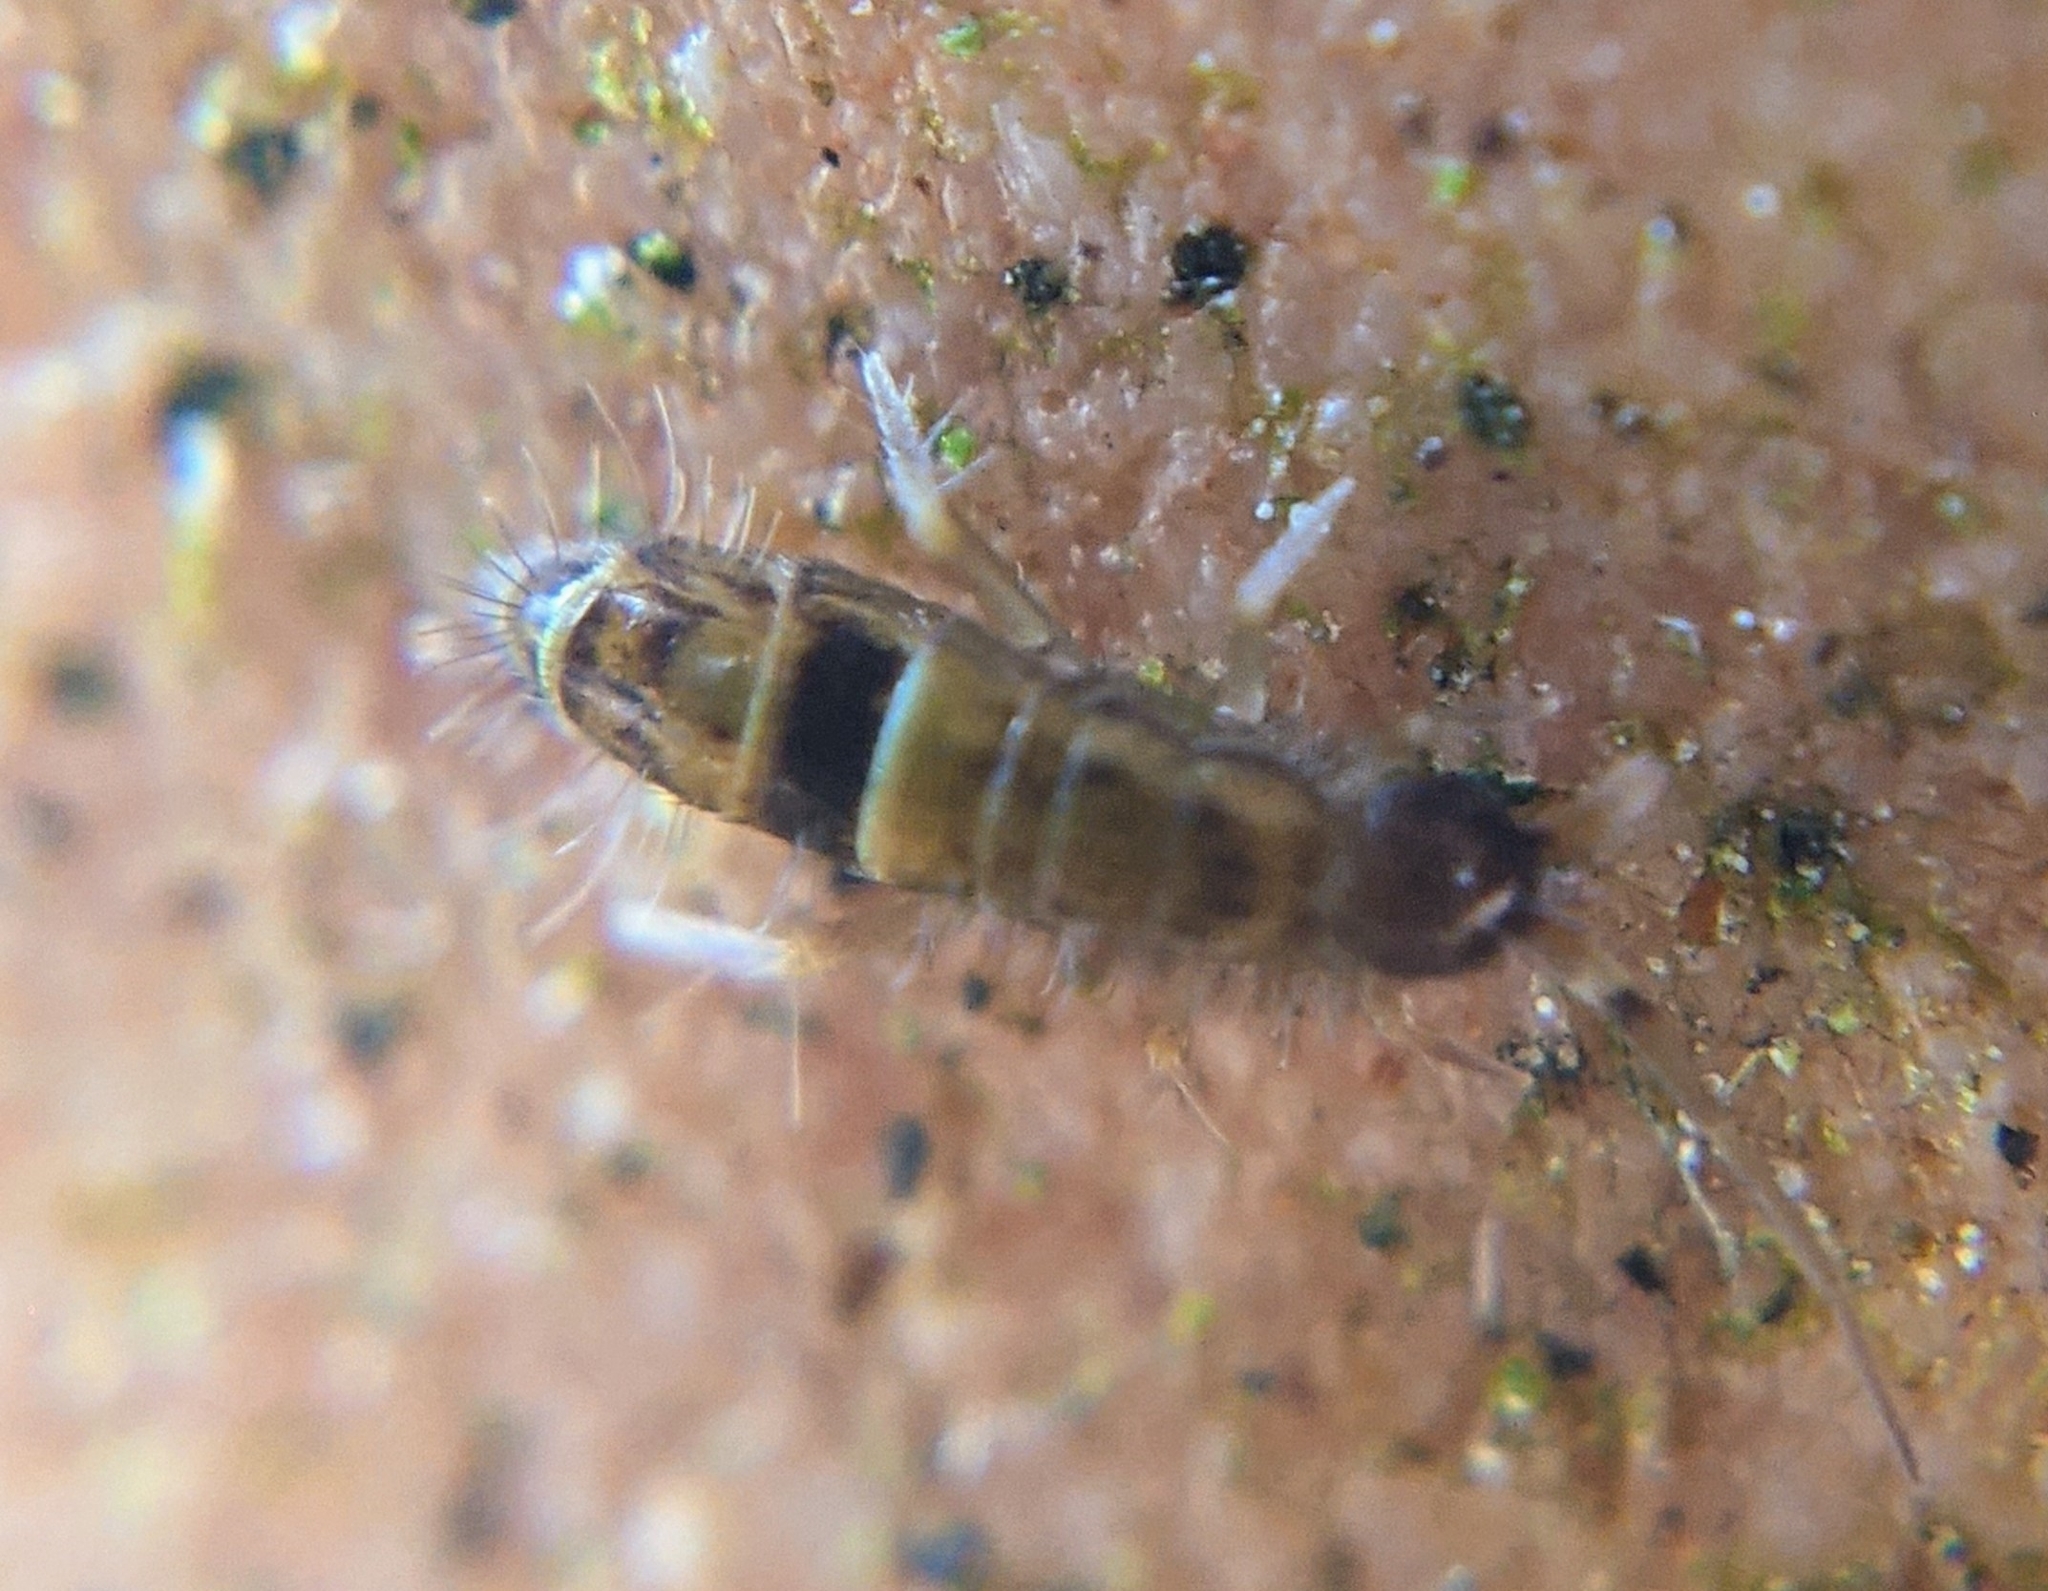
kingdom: Animalia
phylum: Arthropoda
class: Collembola
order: Entomobryomorpha
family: Orchesellidae
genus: Orchesella
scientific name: Orchesella cincta
